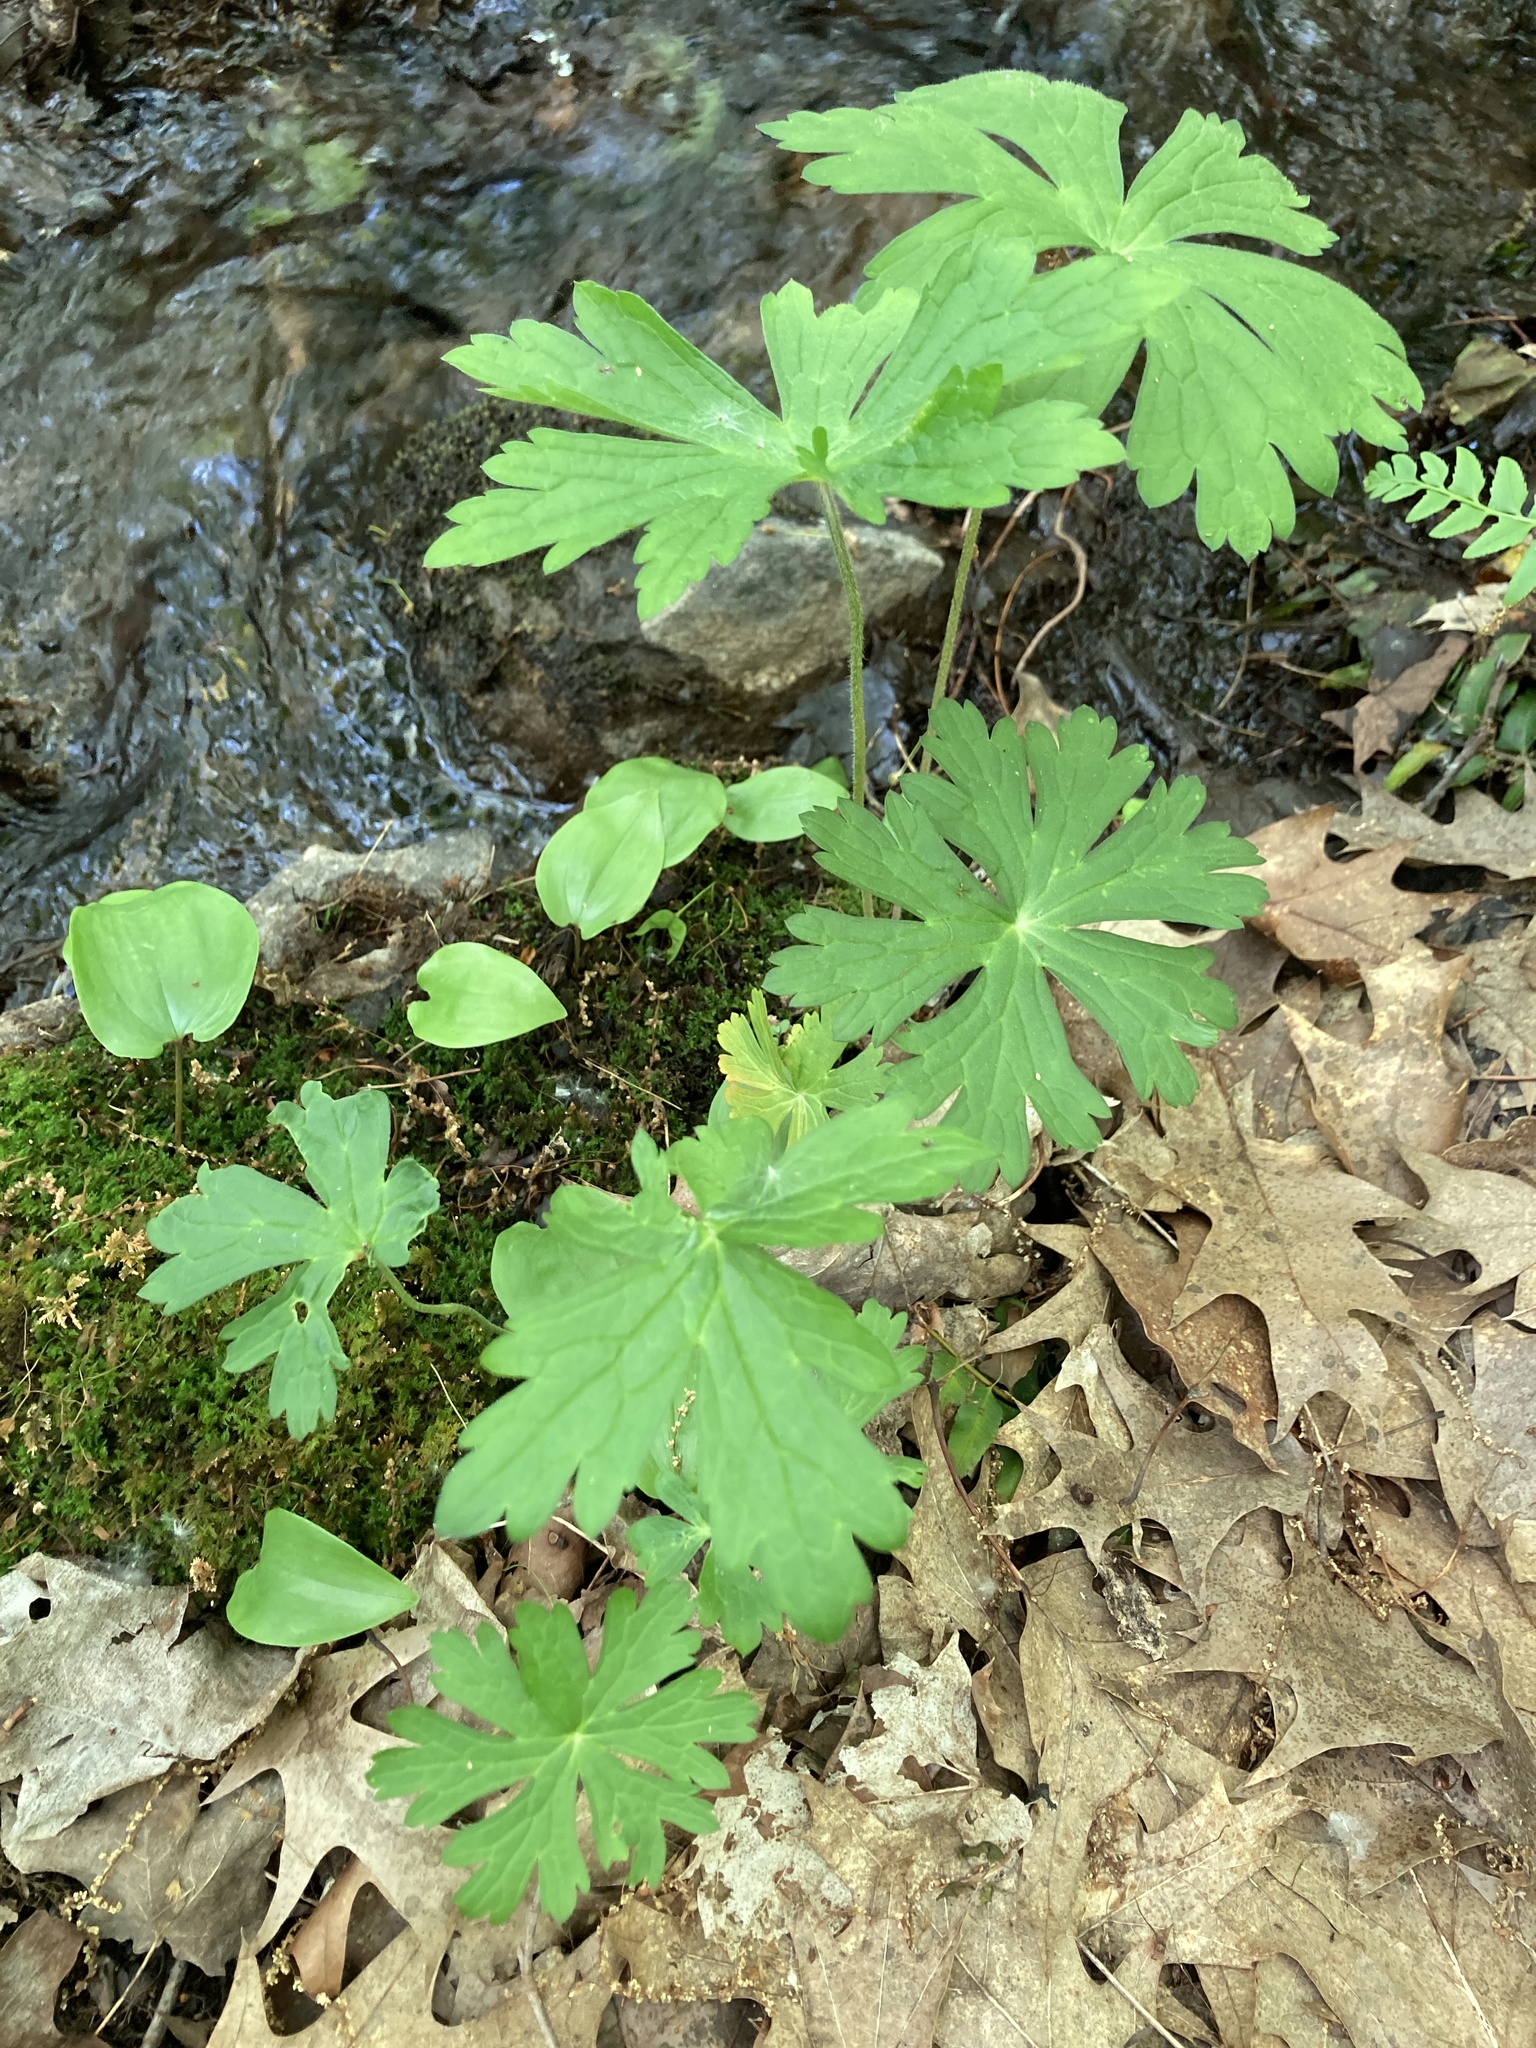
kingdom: Plantae
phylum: Tracheophyta
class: Magnoliopsida
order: Geraniales
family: Geraniaceae
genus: Geranium
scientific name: Geranium maculatum
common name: Spotted geranium
